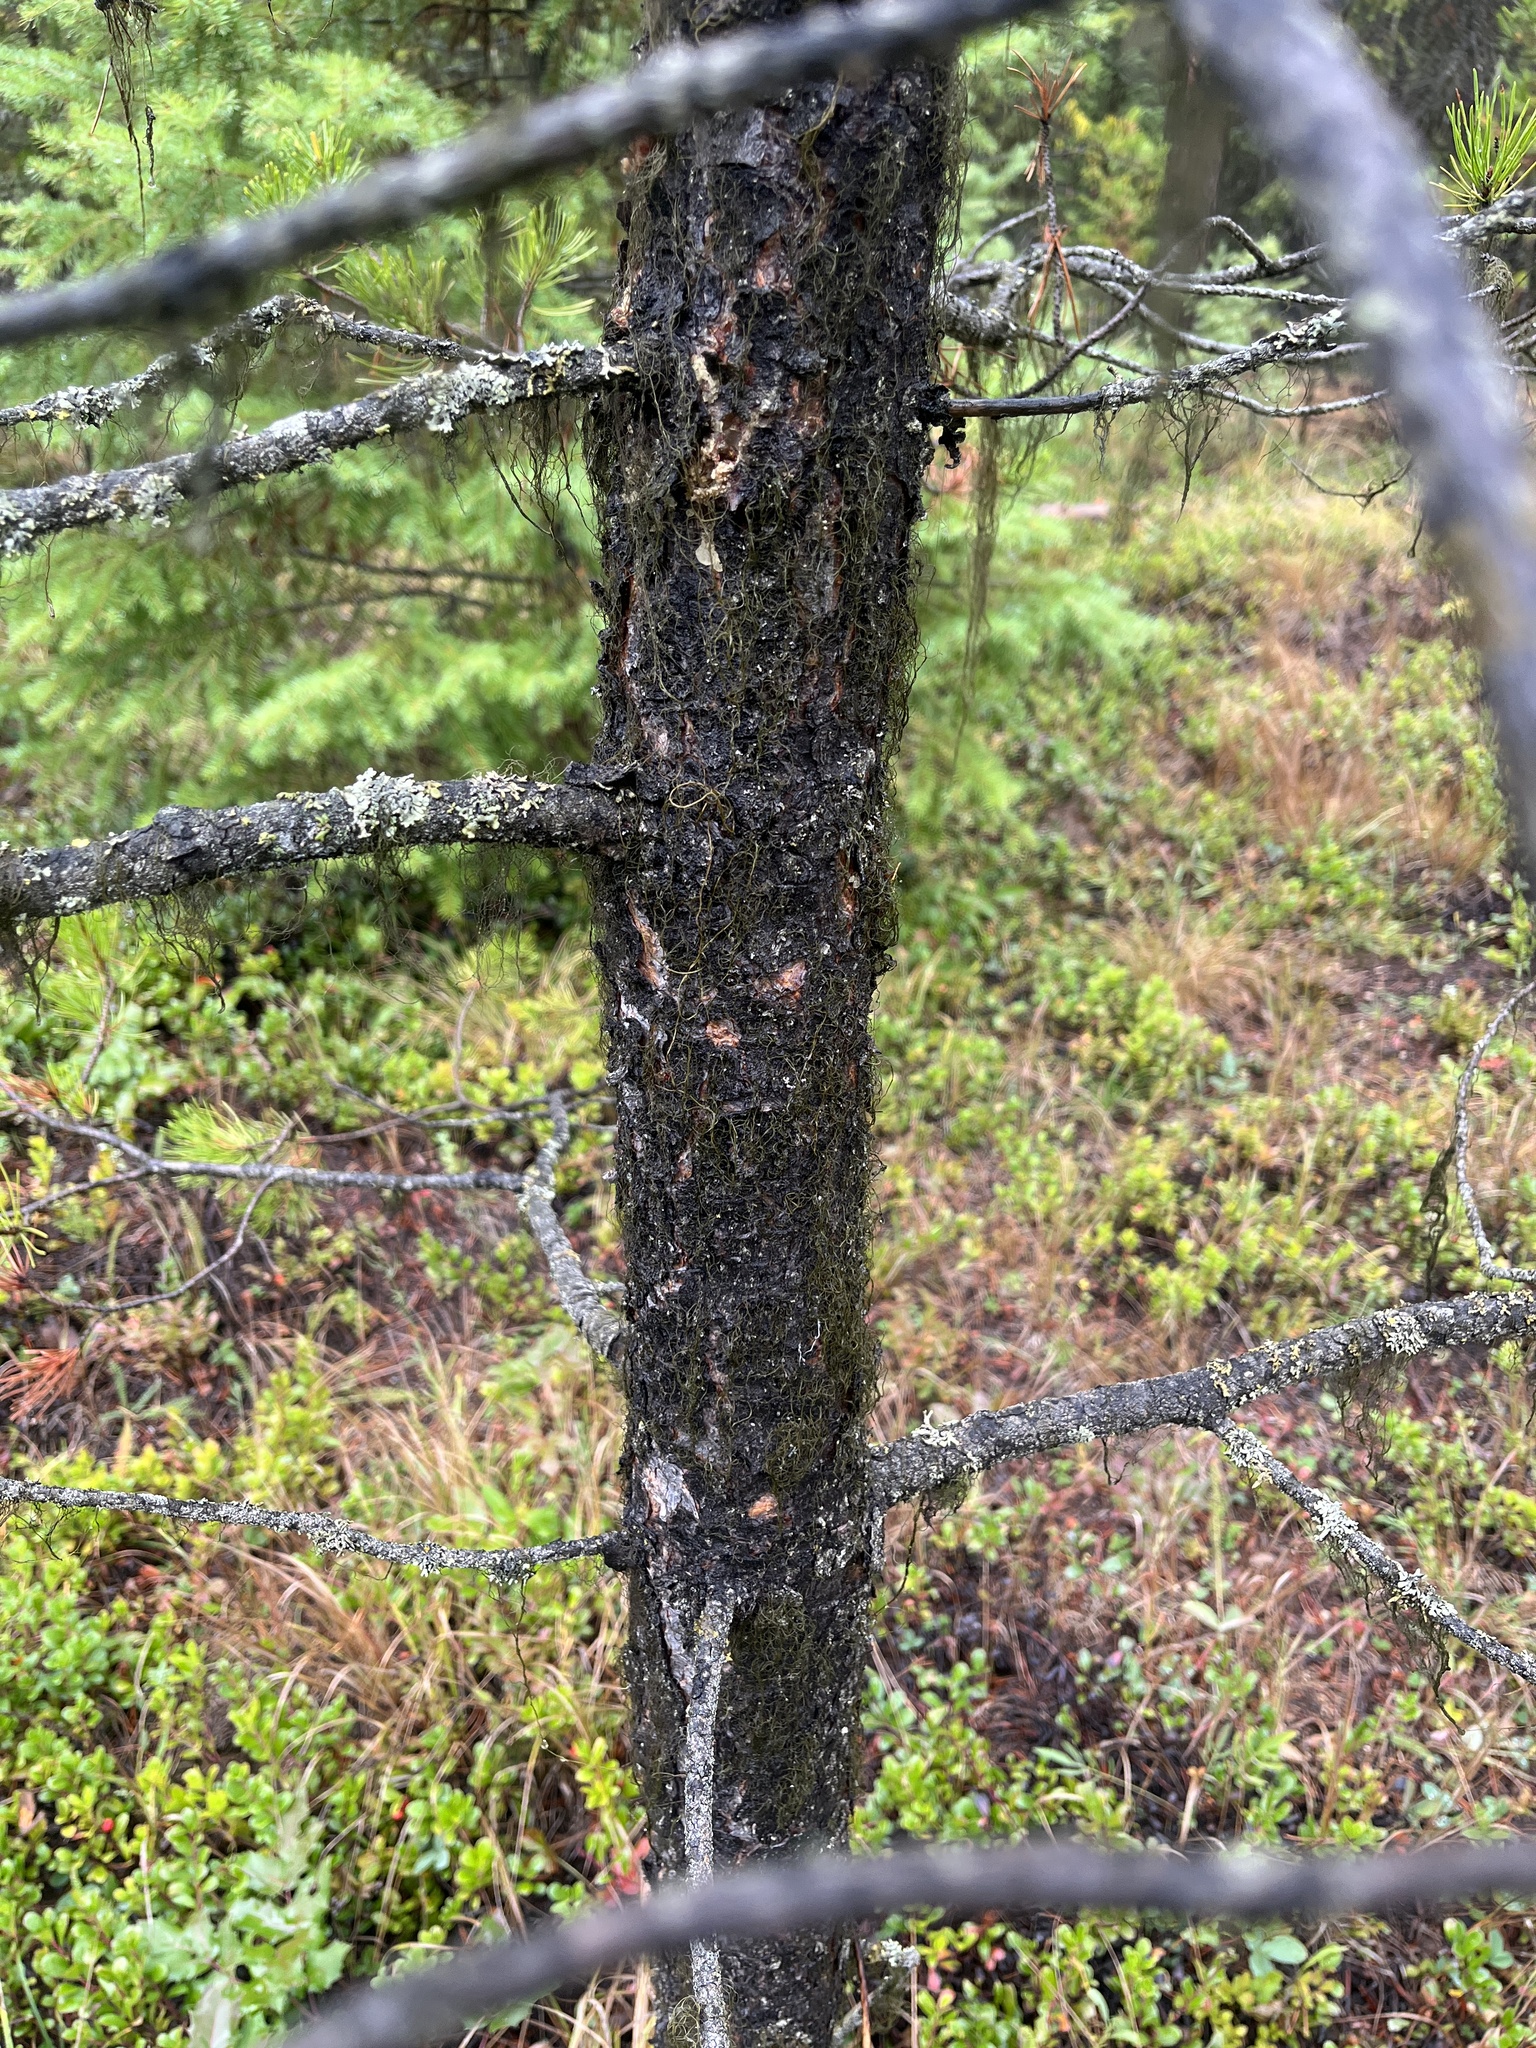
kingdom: Plantae
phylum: Tracheophyta
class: Pinopsida
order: Pinales
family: Pinaceae
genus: Pinus
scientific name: Pinus contorta
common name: Lodgepole pine
